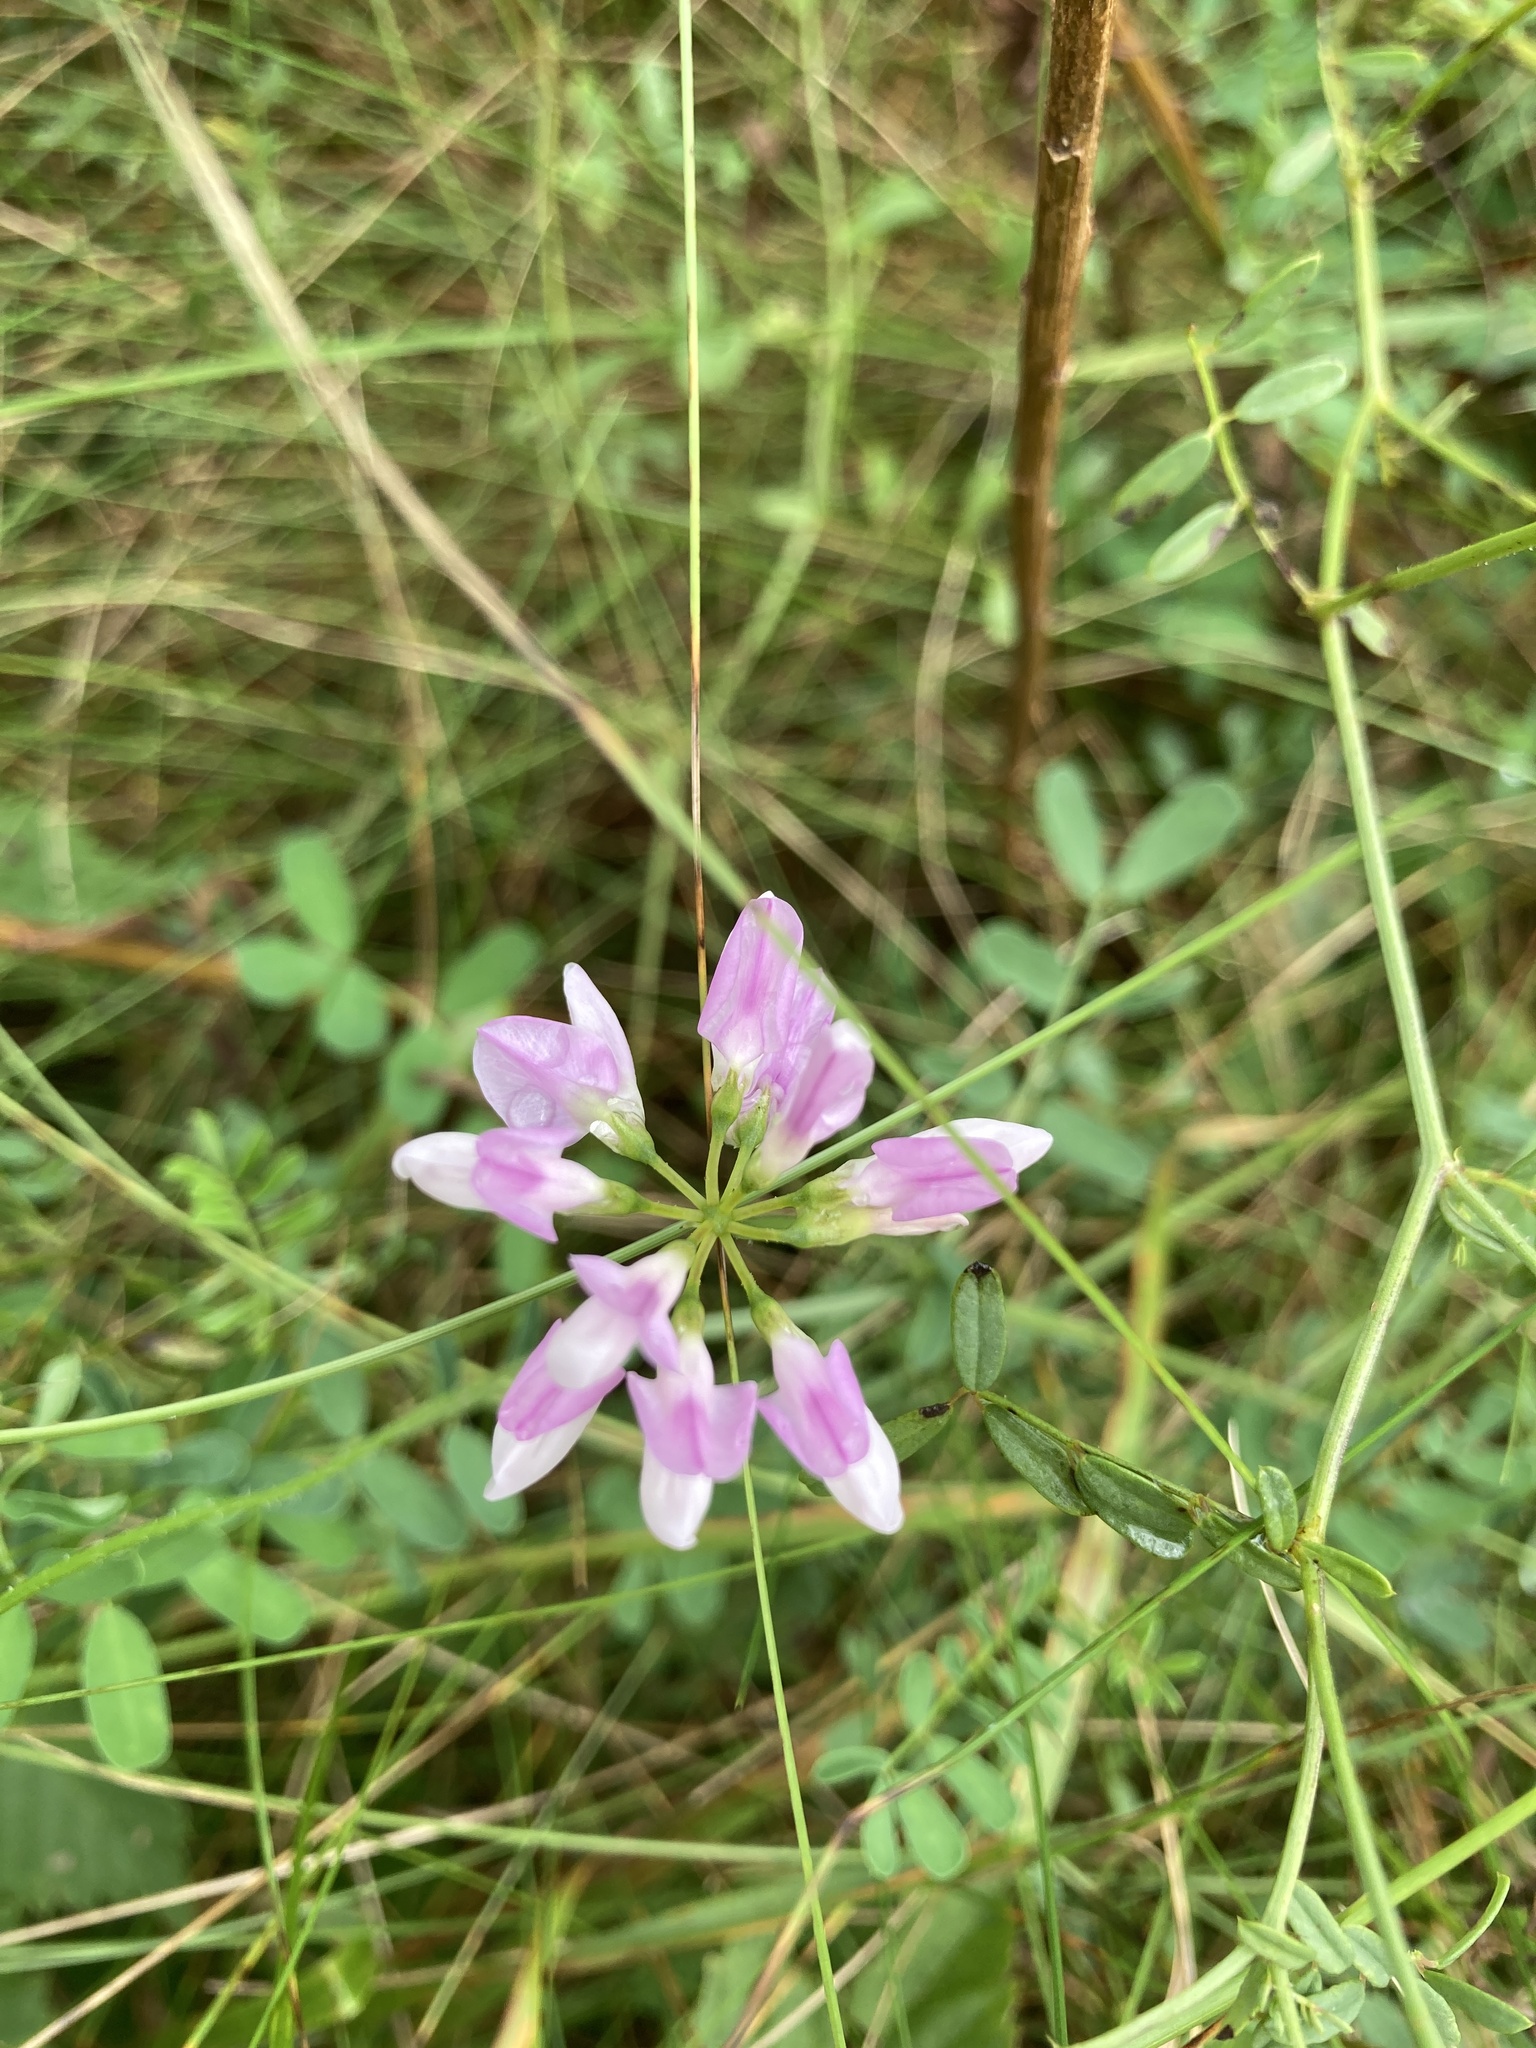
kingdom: Plantae
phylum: Tracheophyta
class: Magnoliopsida
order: Fabales
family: Fabaceae
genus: Coronilla
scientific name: Coronilla varia
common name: Crownvetch
